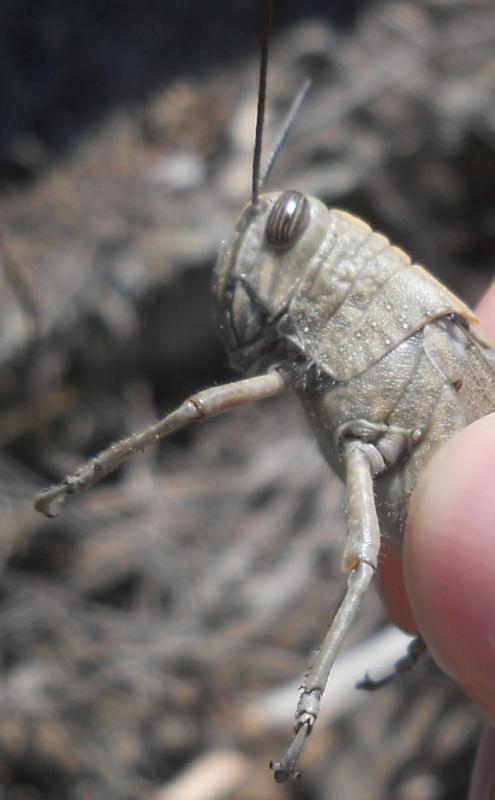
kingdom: Animalia
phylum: Arthropoda
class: Insecta
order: Orthoptera
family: Acrididae
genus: Anacridium
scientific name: Anacridium aegyptium
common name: Egyptian grasshopper
